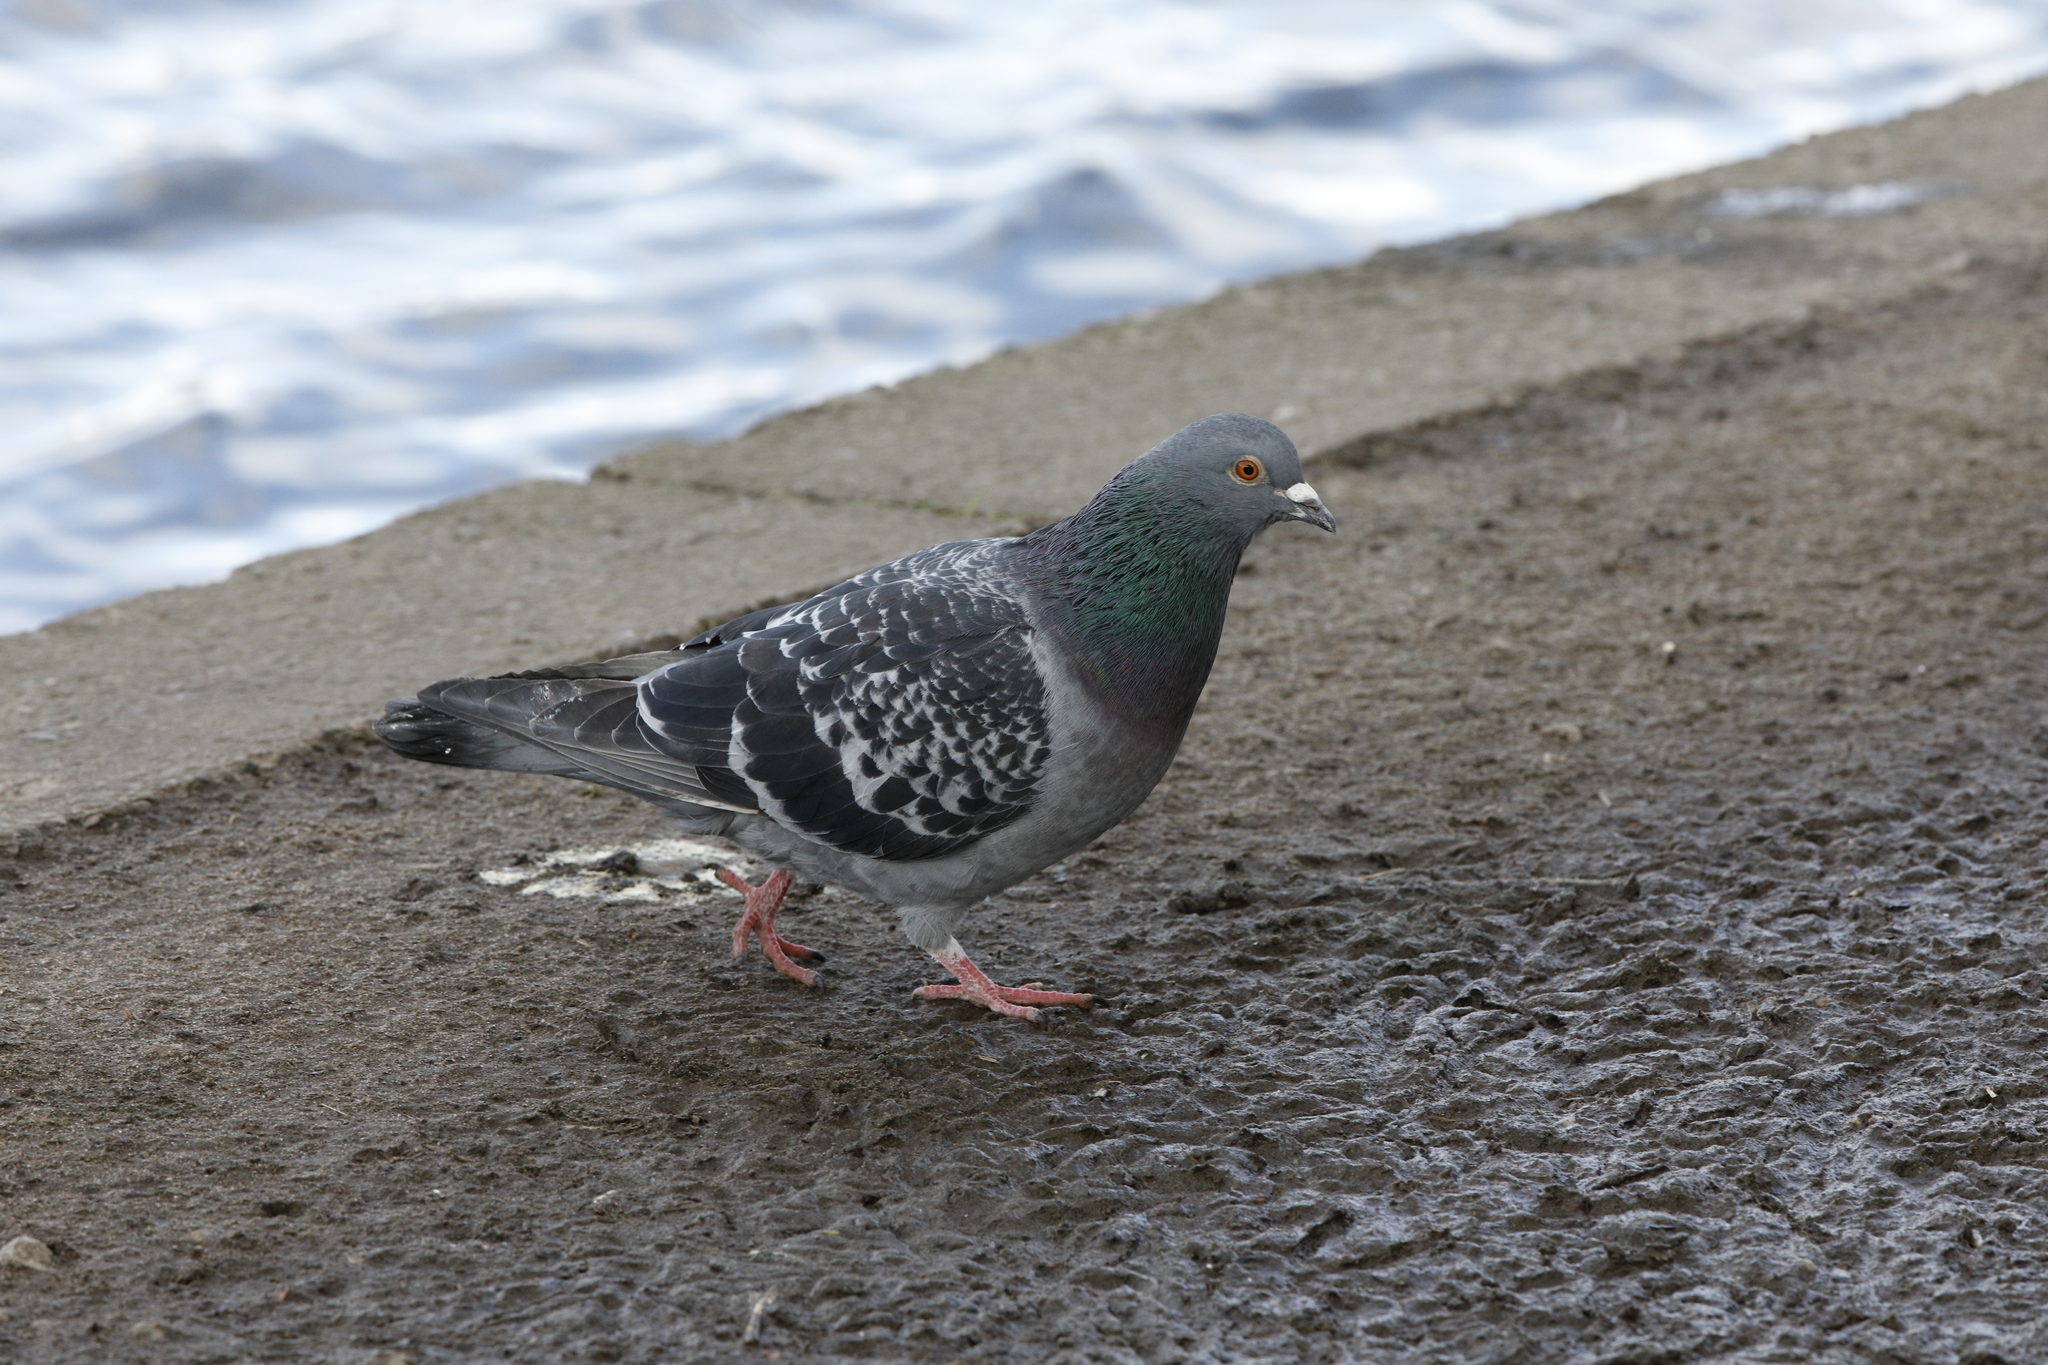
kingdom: Animalia
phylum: Chordata
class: Aves
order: Columbiformes
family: Columbidae
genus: Columba
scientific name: Columba livia
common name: Rock pigeon
